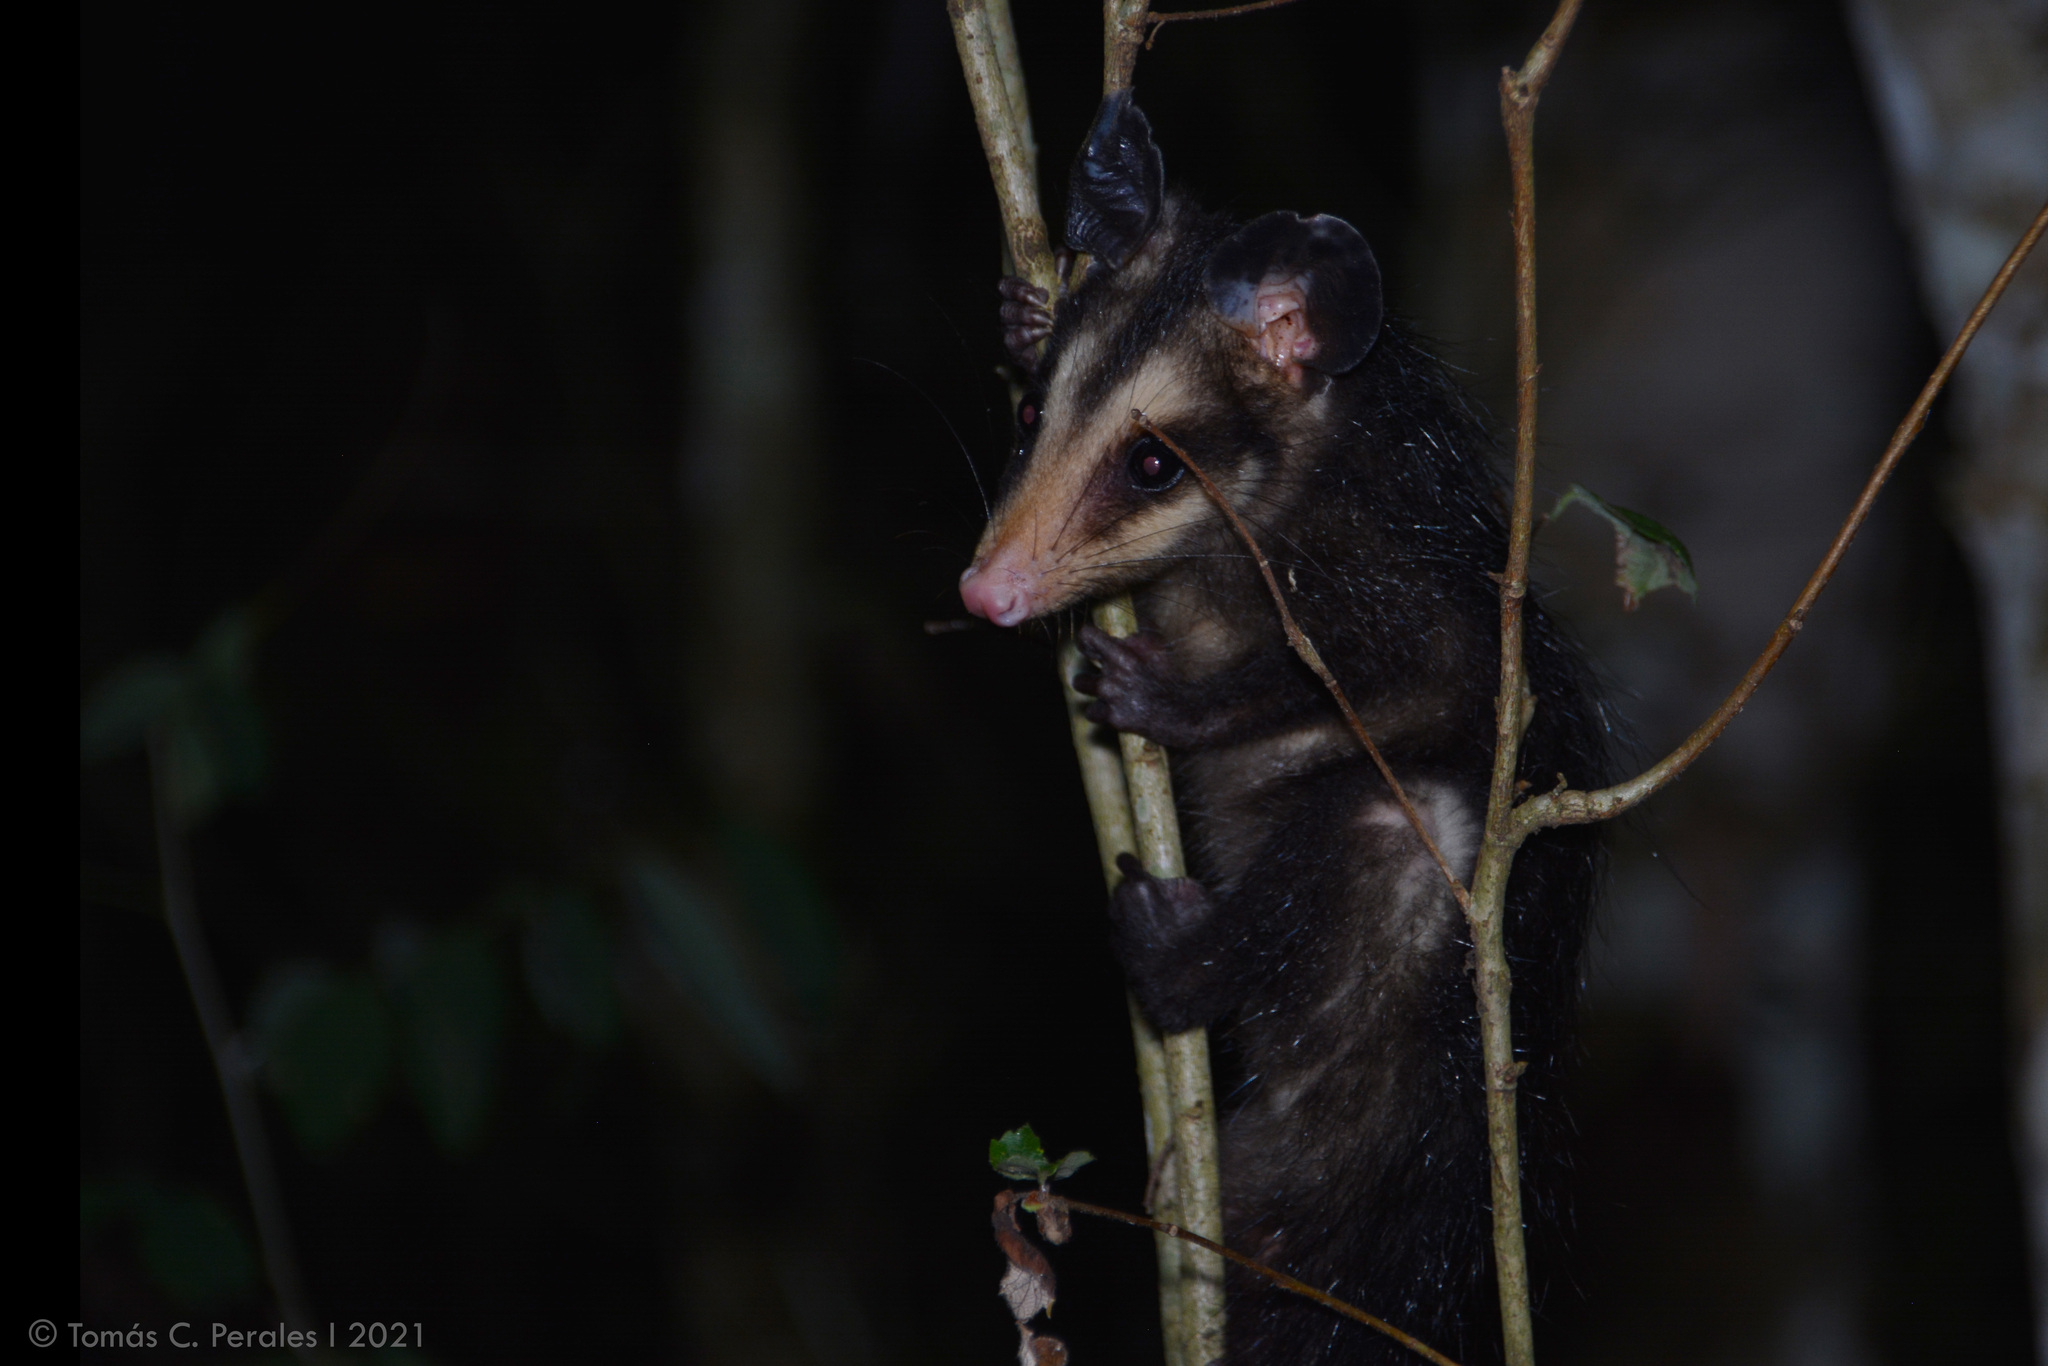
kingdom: Animalia
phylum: Chordata
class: Mammalia
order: Didelphimorphia
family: Didelphidae
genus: Didelphis
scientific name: Didelphis aurita
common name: Big-eared opossum
